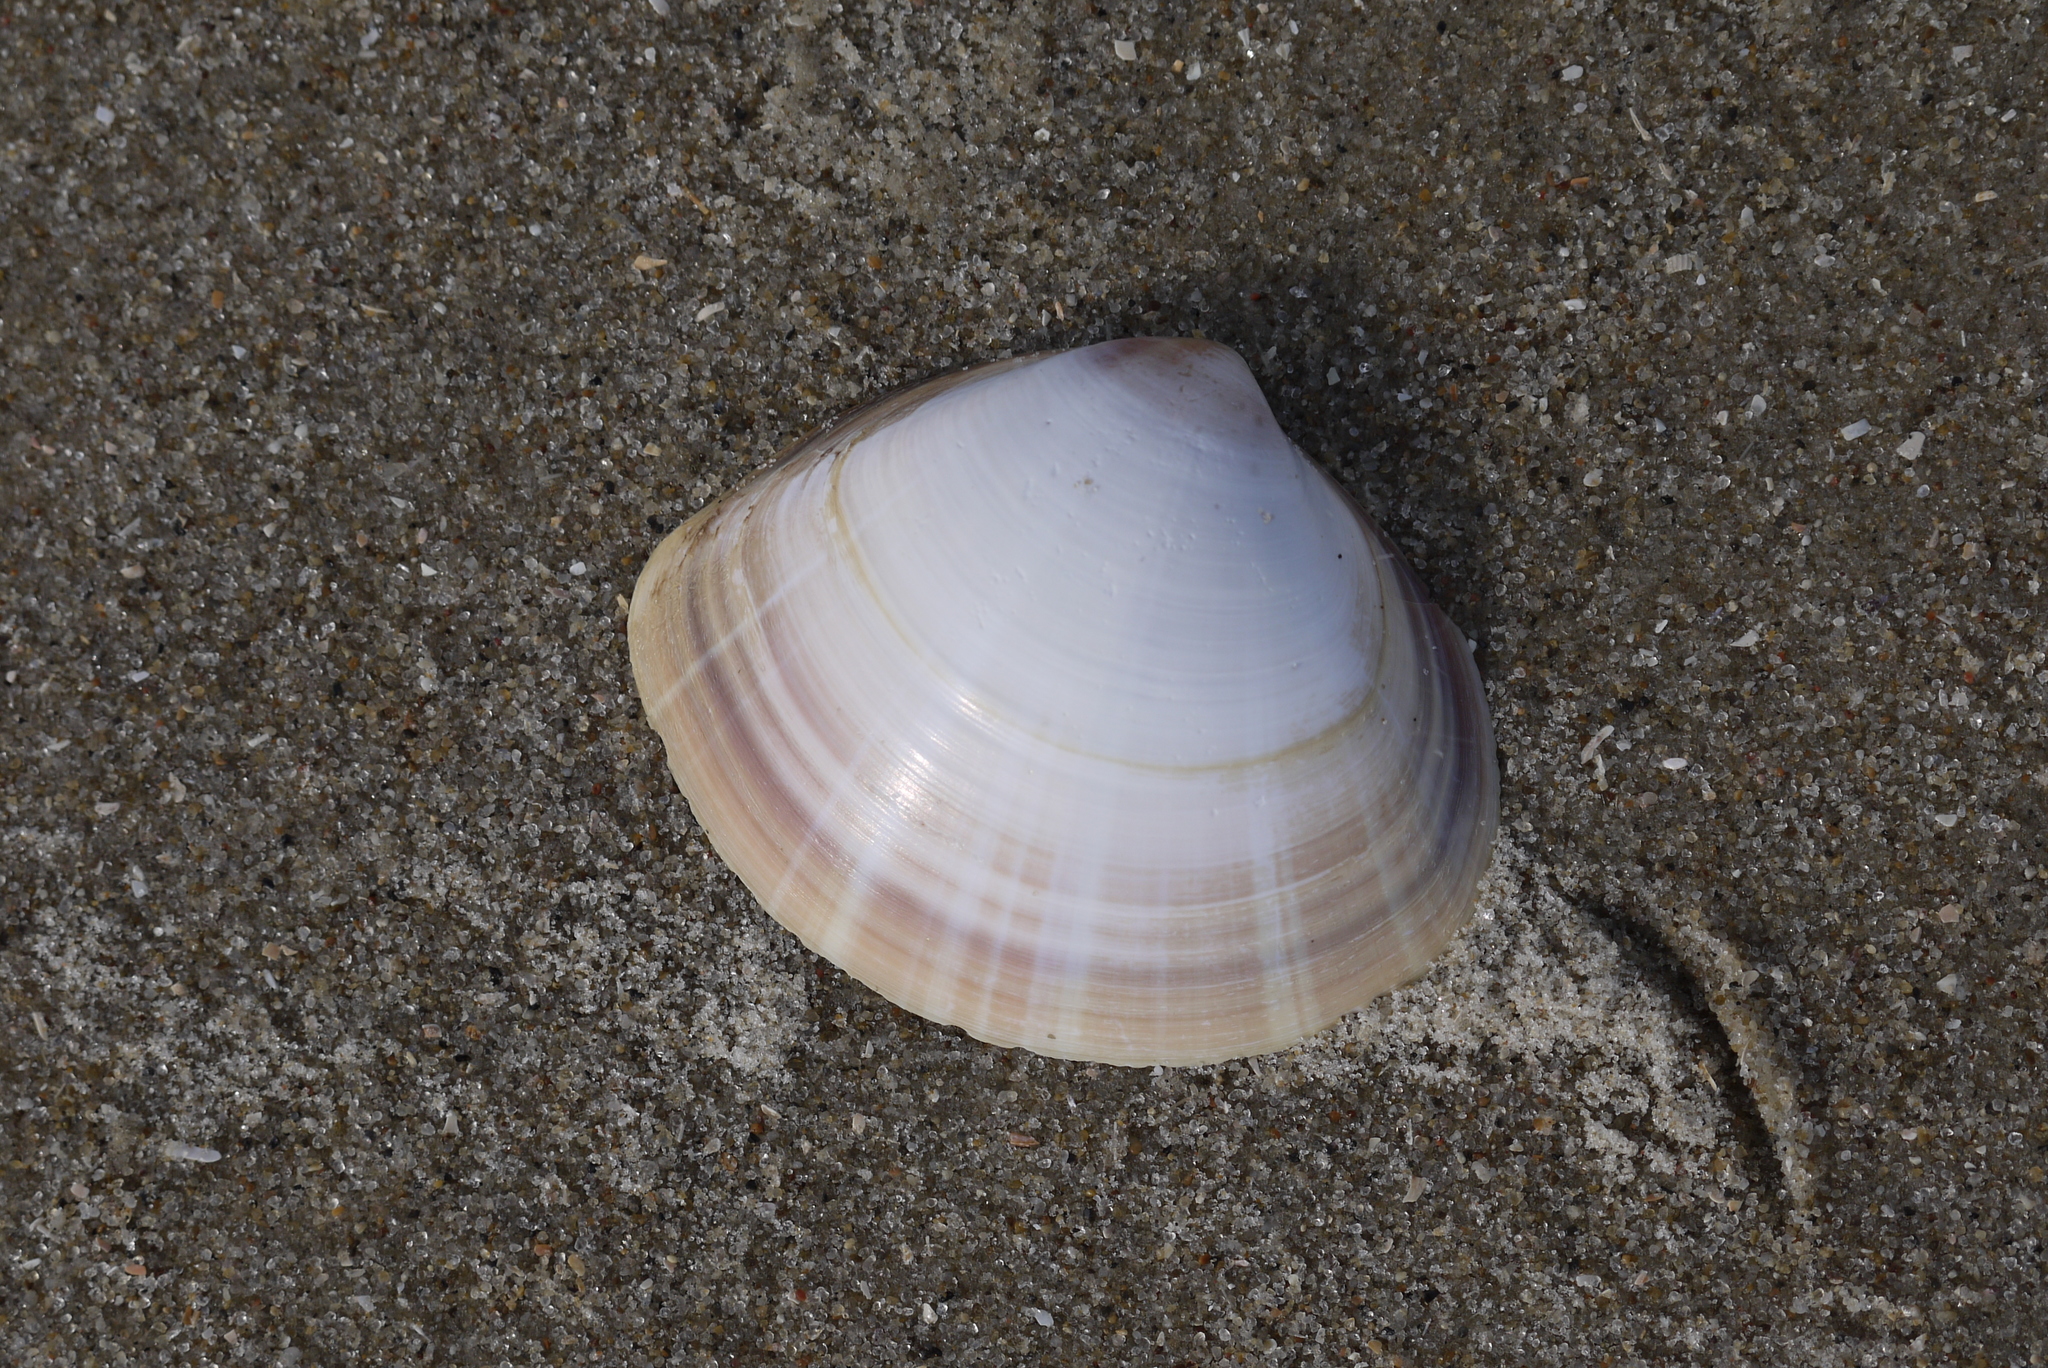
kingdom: Animalia
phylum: Mollusca
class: Bivalvia
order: Venerida
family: Mactridae
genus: Mactra
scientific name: Mactra stultorum
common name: Rayed trough shell
